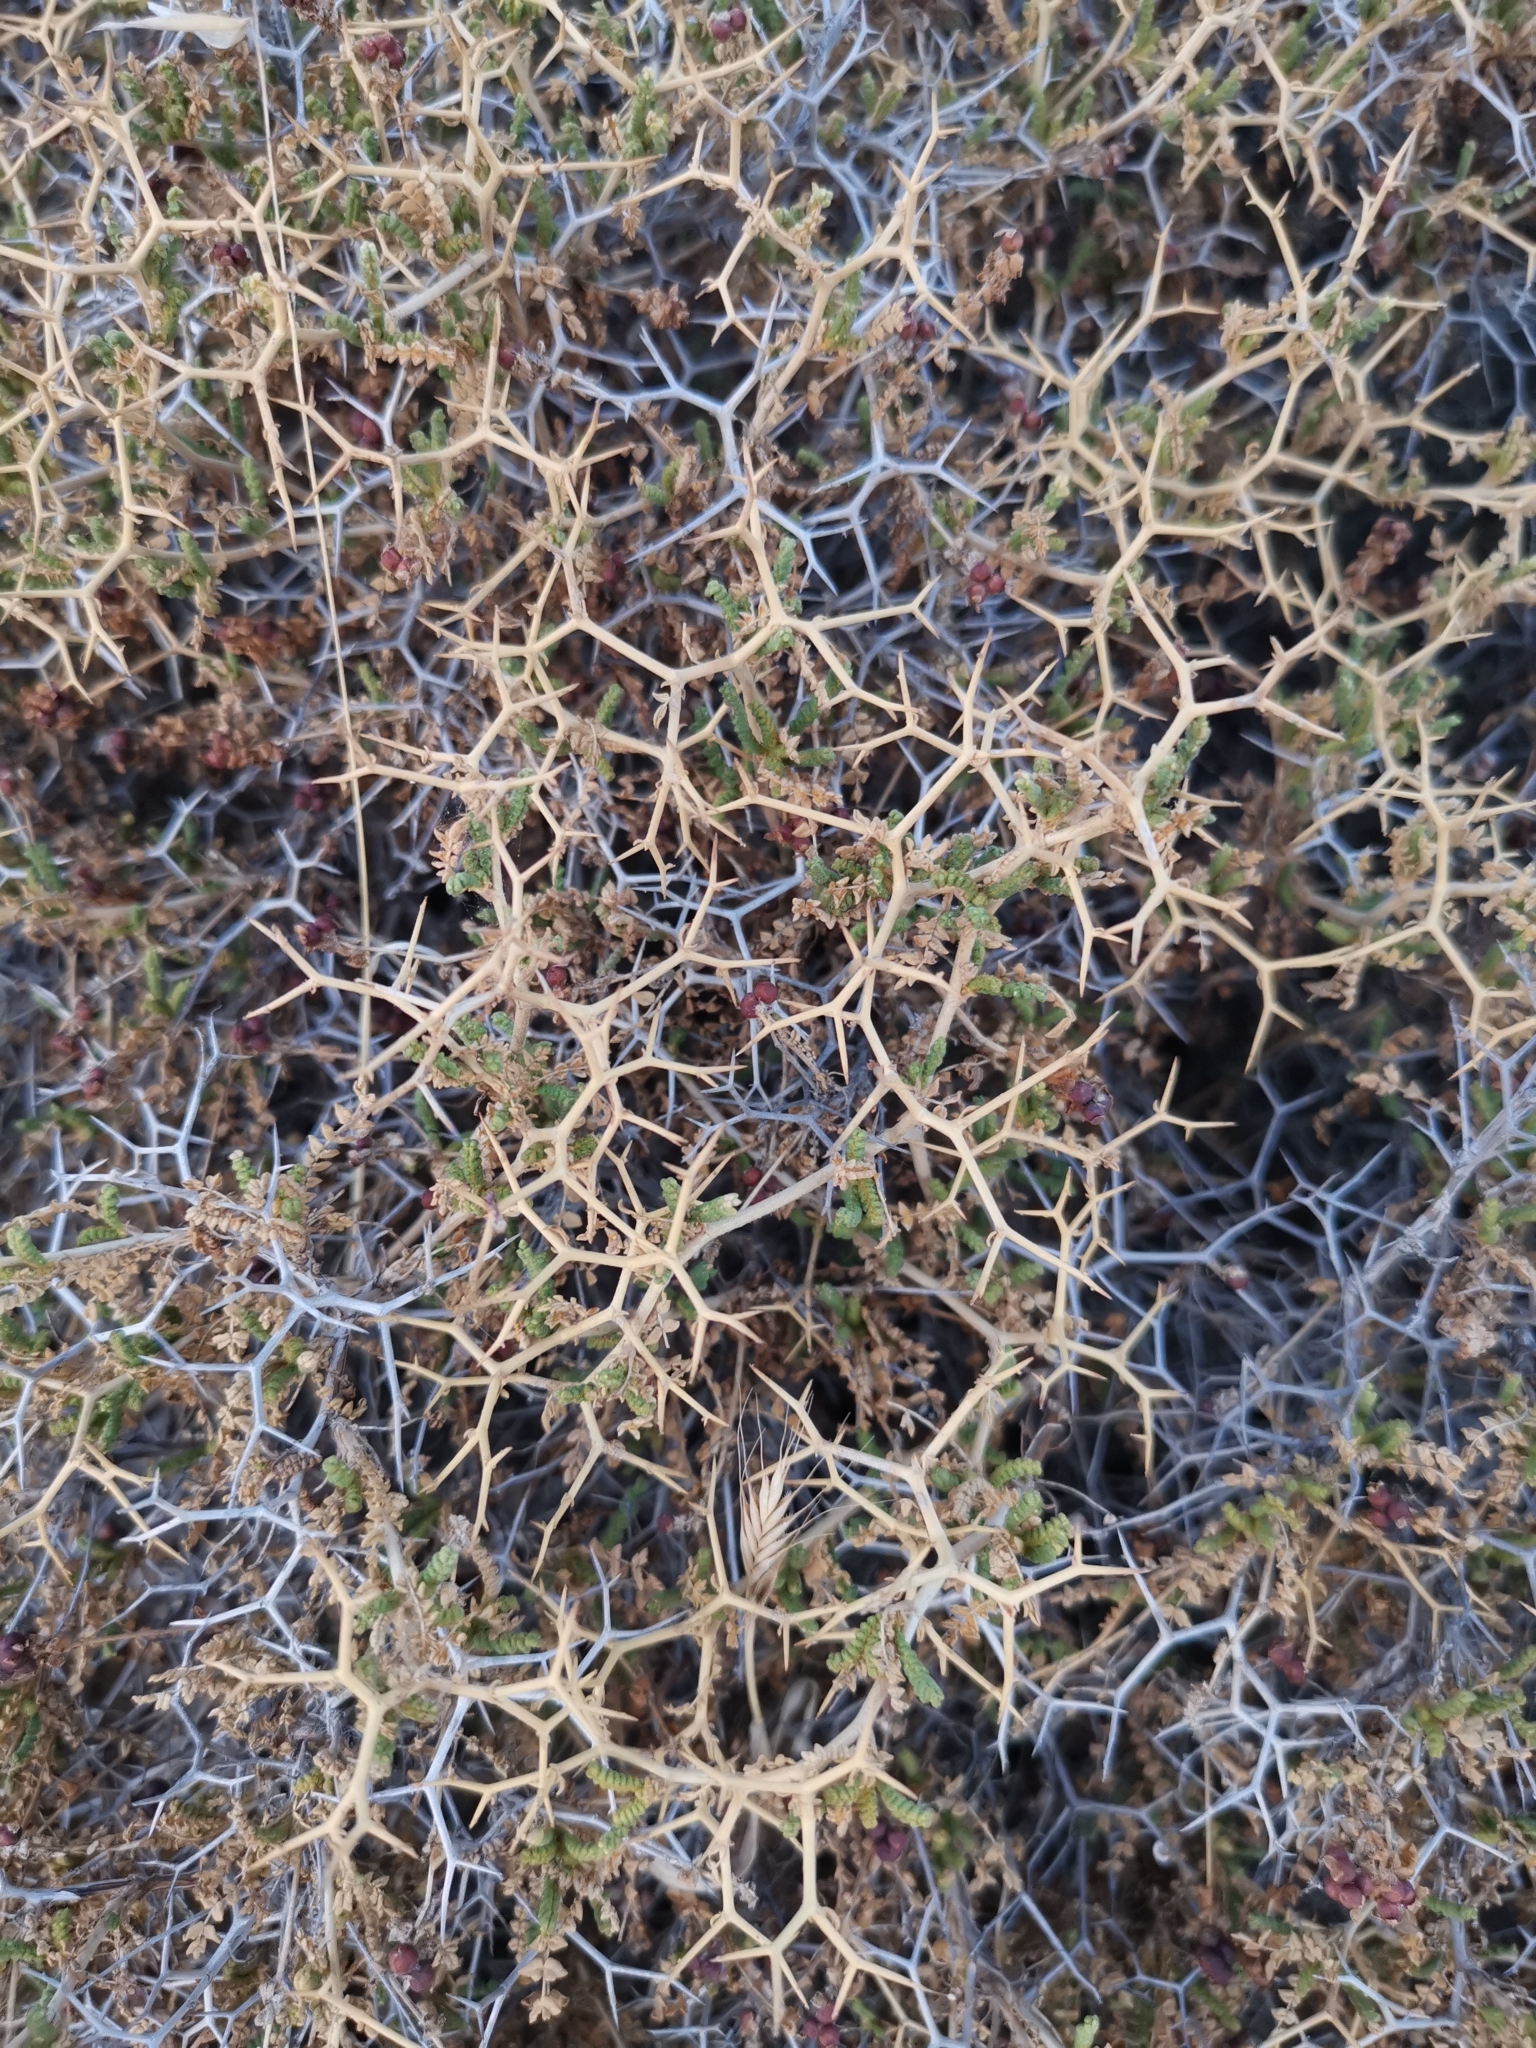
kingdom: Plantae
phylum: Tracheophyta
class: Magnoliopsida
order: Rosales
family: Rosaceae
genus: Sarcopoterium
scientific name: Sarcopoterium spinosum
